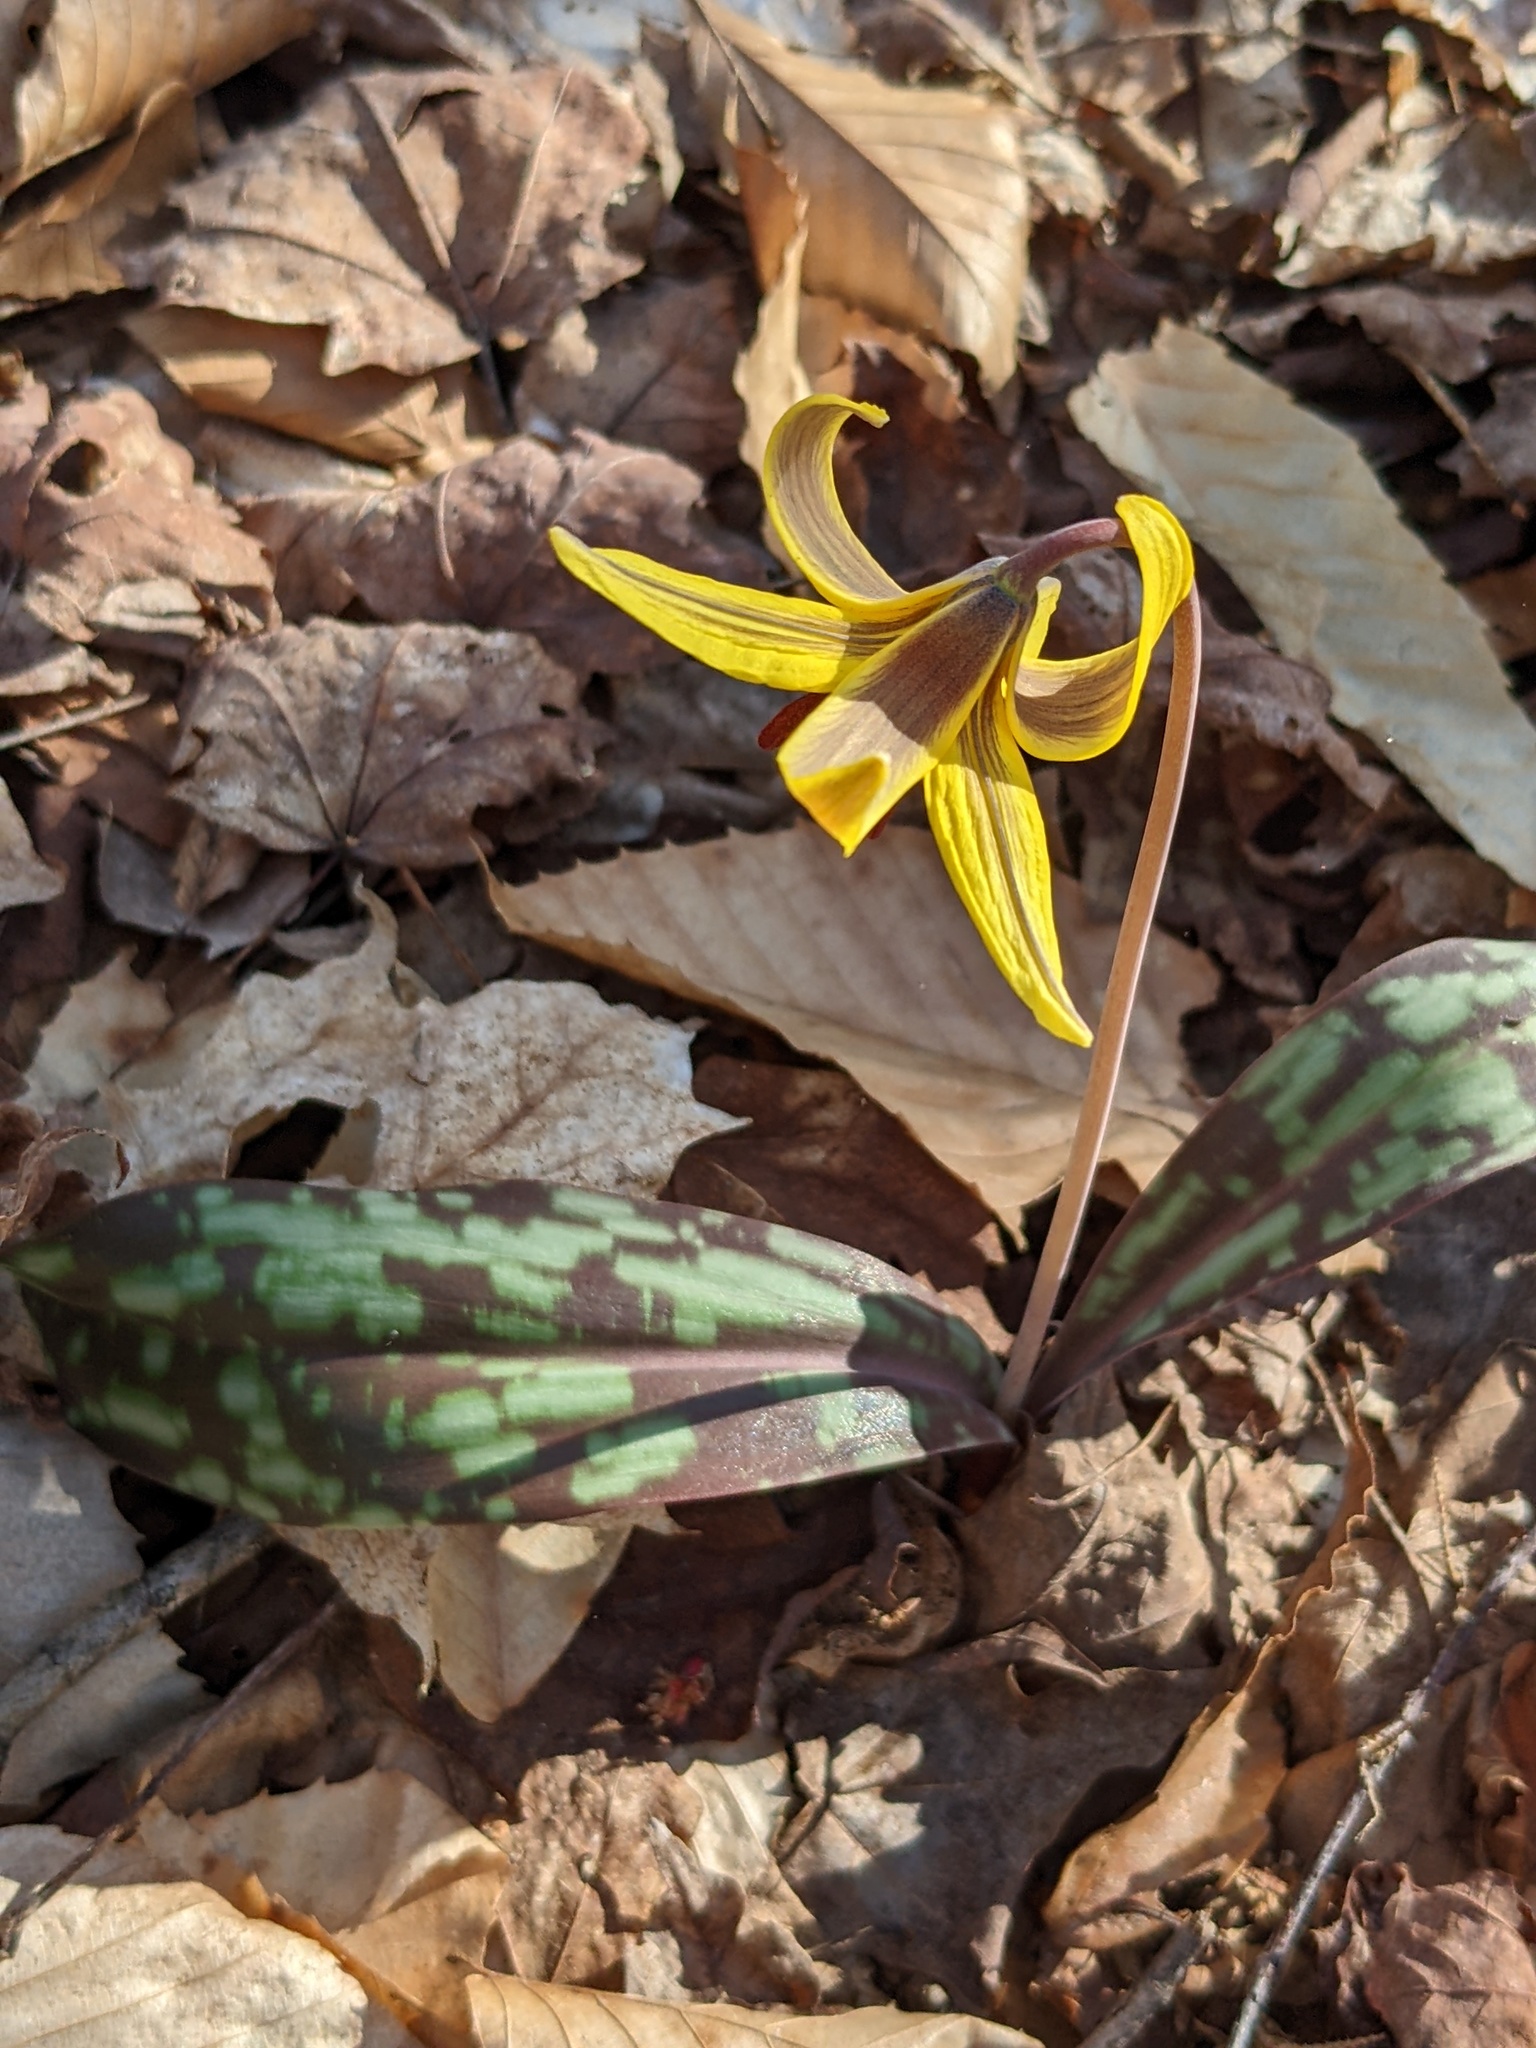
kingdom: Plantae
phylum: Tracheophyta
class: Liliopsida
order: Liliales
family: Liliaceae
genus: Erythronium
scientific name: Erythronium americanum
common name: Yellow adder's-tongue
